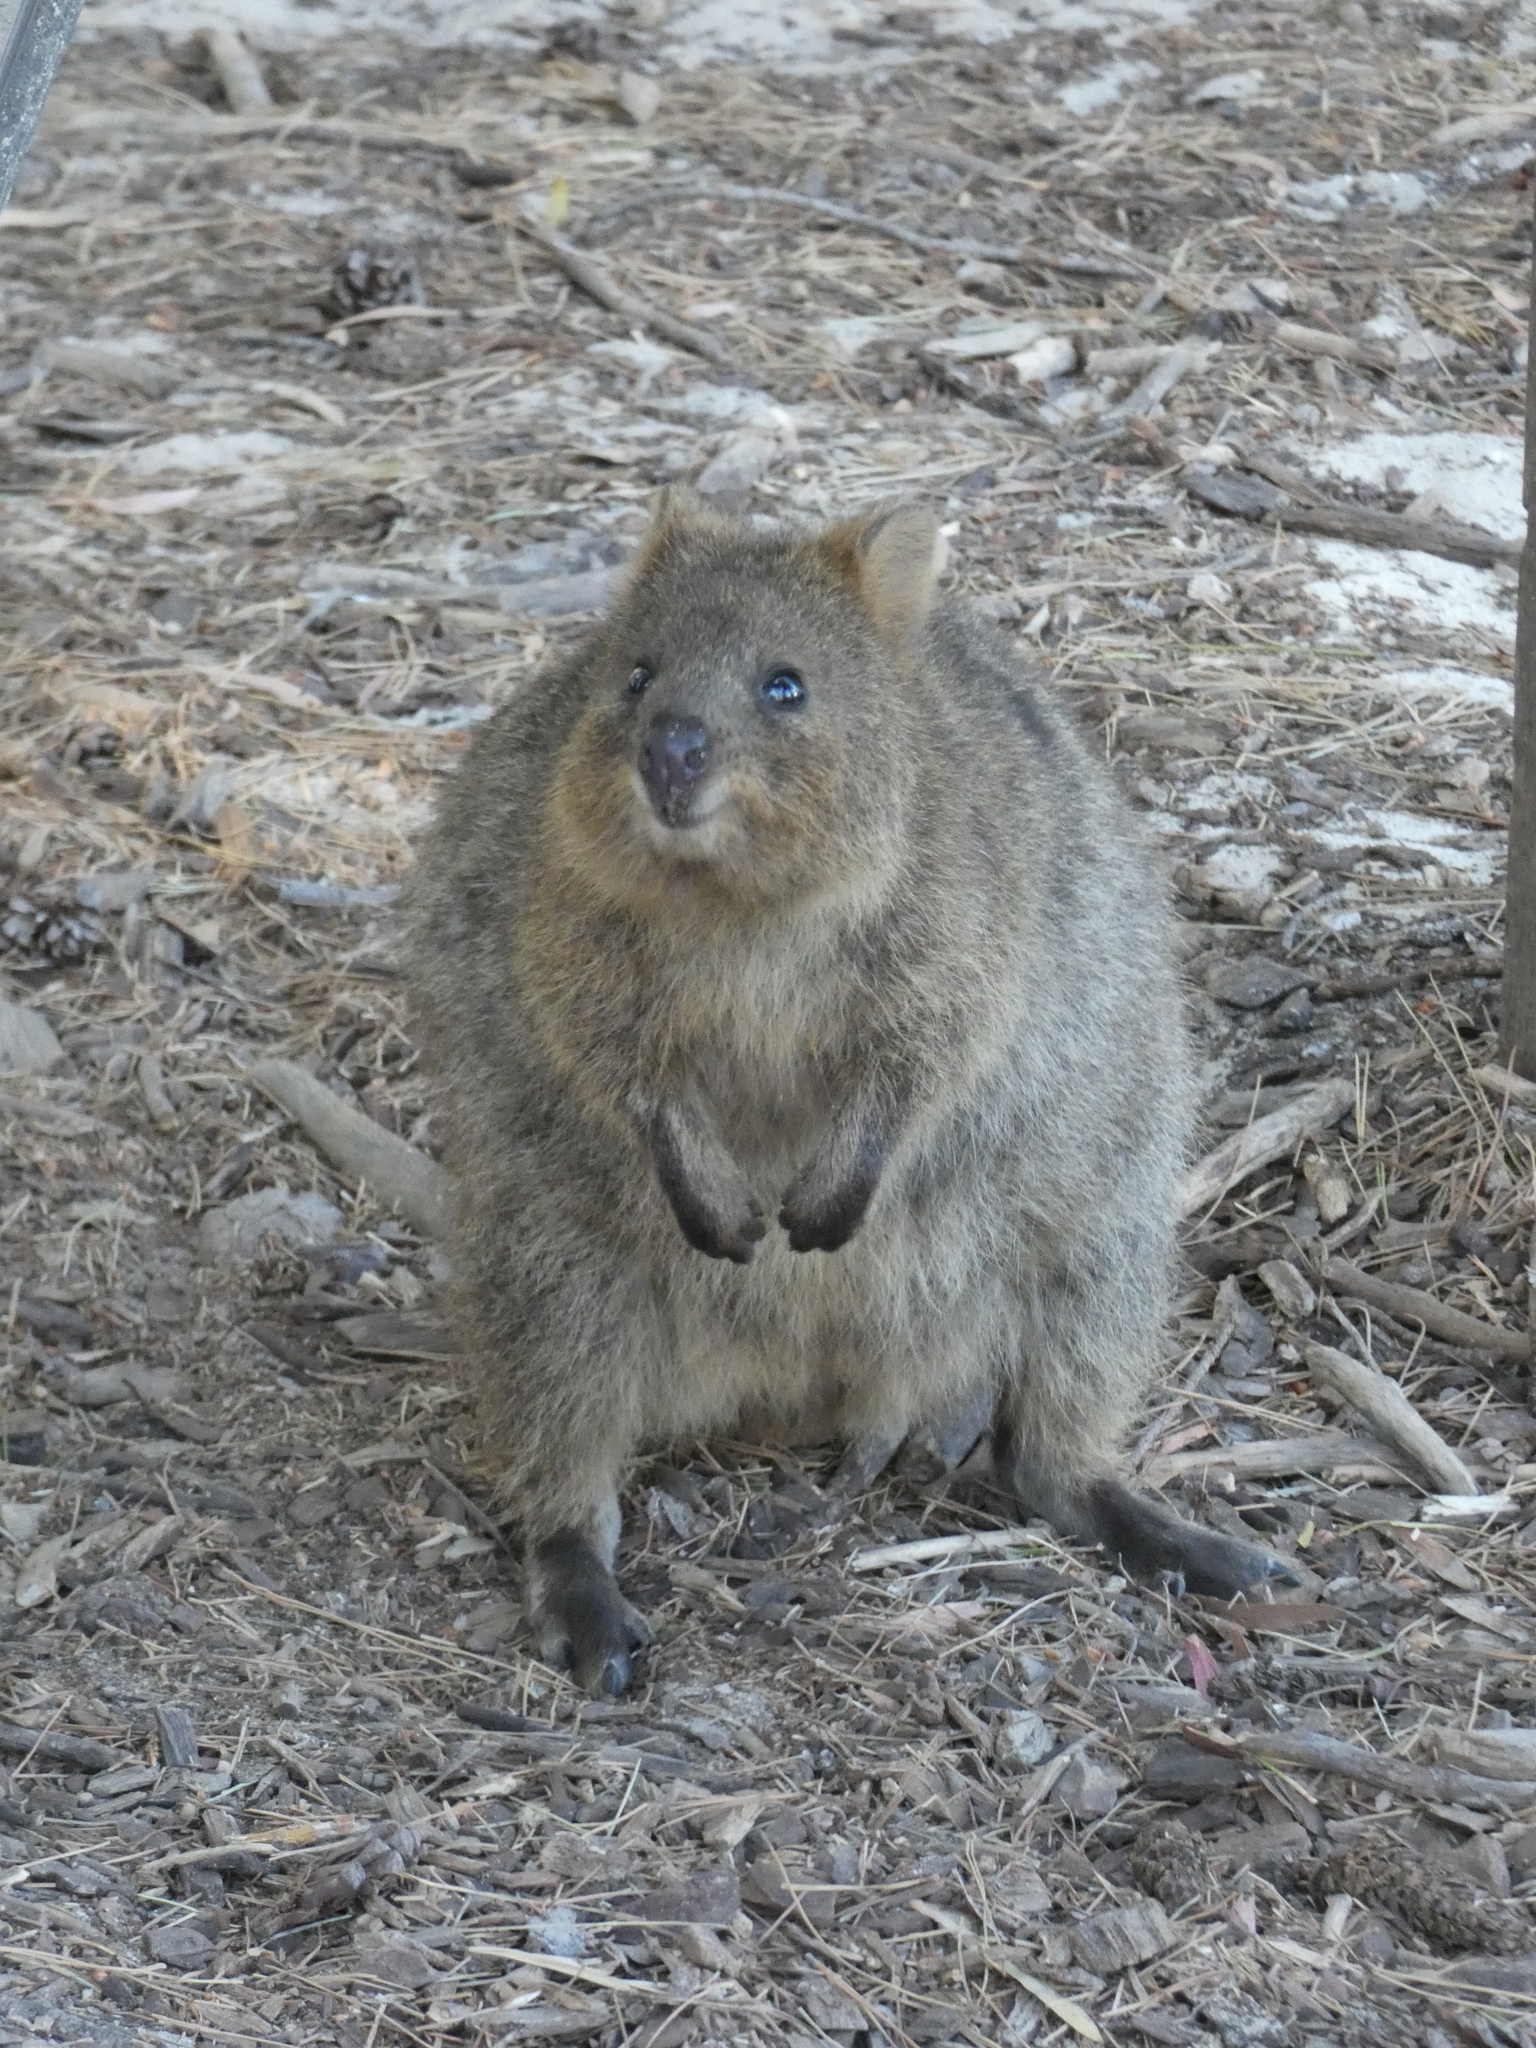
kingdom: Animalia
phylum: Chordata
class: Mammalia
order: Diprotodontia
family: Macropodidae
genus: Setonix
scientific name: Setonix brachyurus
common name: Quokka
